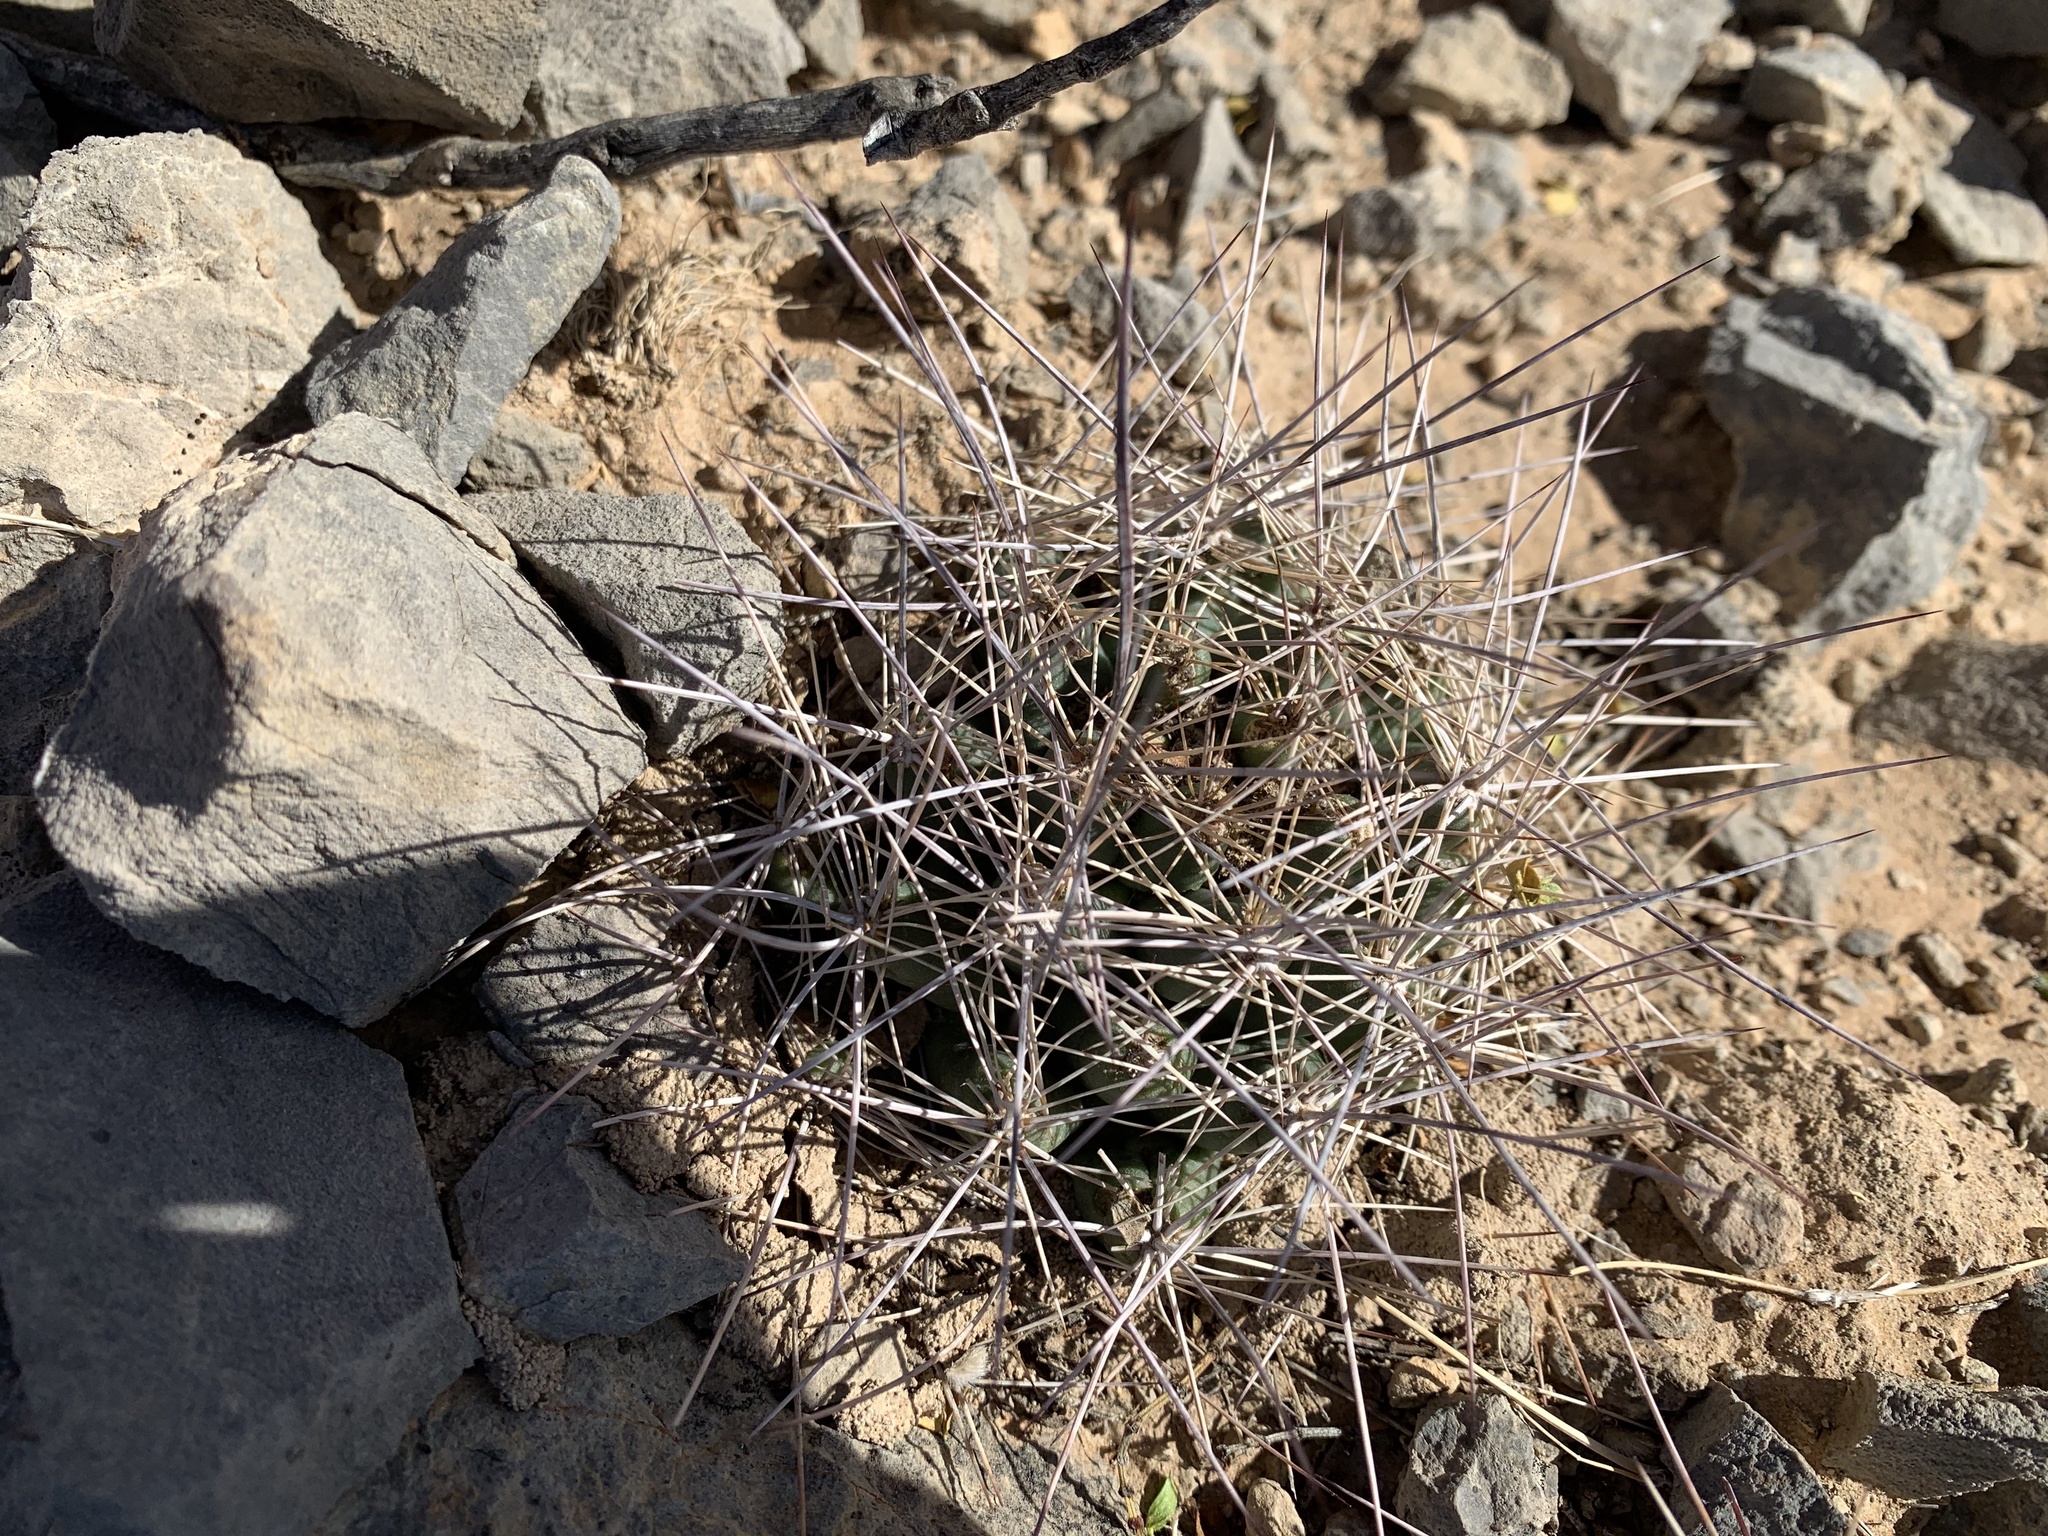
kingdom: Plantae
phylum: Tracheophyta
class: Magnoliopsida
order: Caryophyllales
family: Cactaceae
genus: Coryphantha
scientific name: Coryphantha macromeris
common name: Nipple beehive cactus
